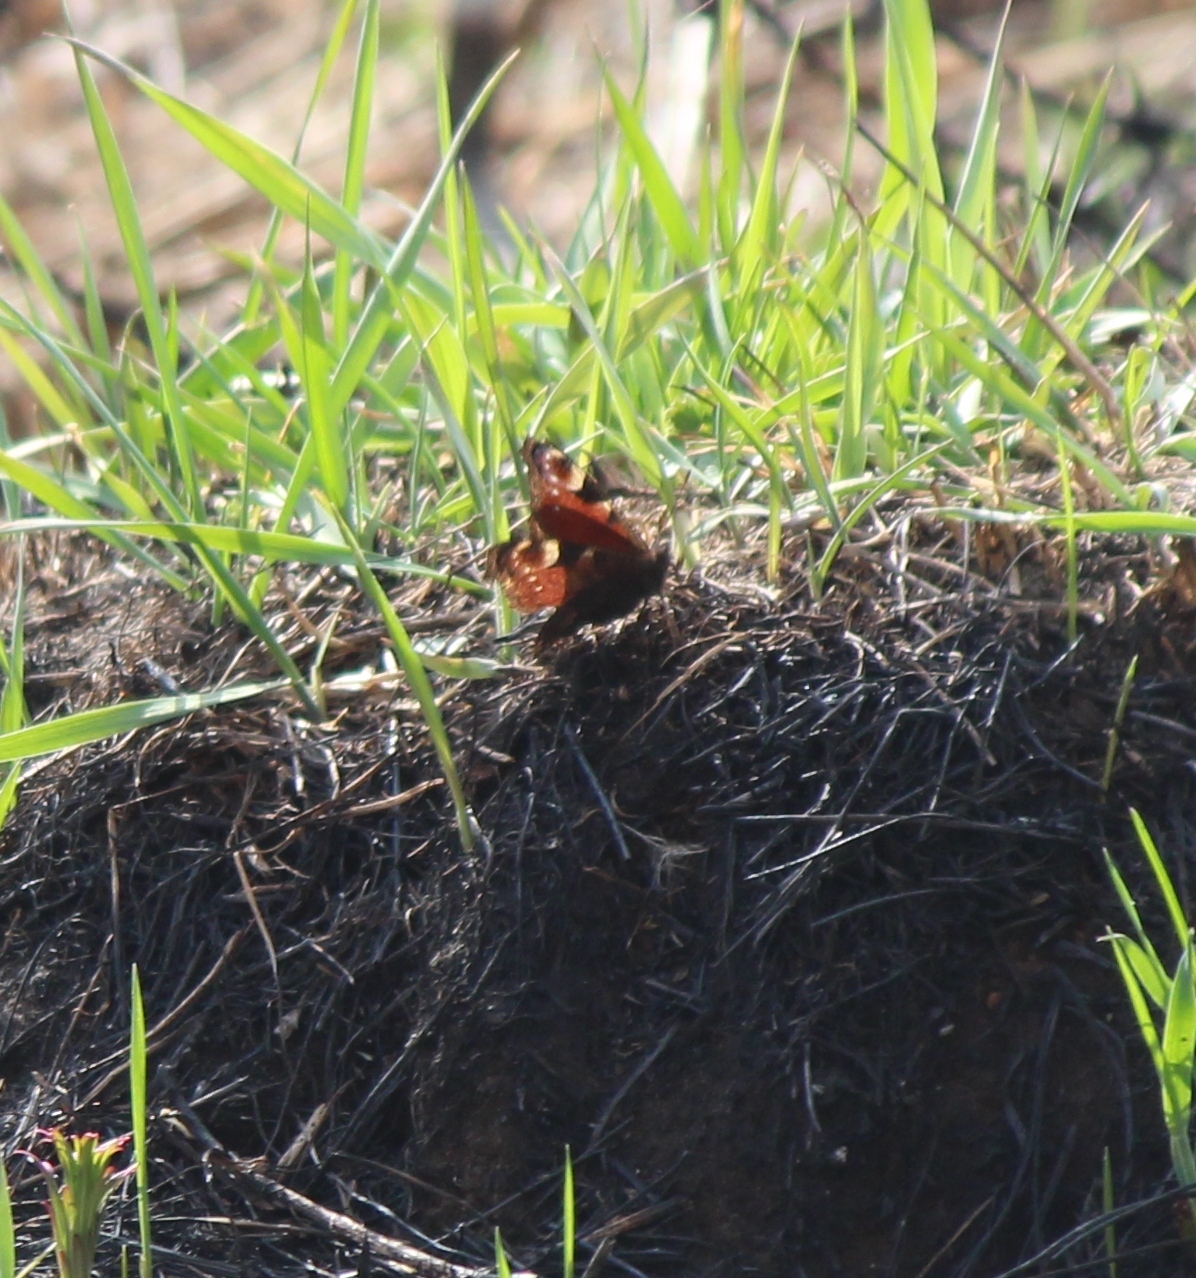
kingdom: Animalia
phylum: Arthropoda
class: Insecta
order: Lepidoptera
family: Nymphalidae
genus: Aglais
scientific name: Aglais io
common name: Peacock
